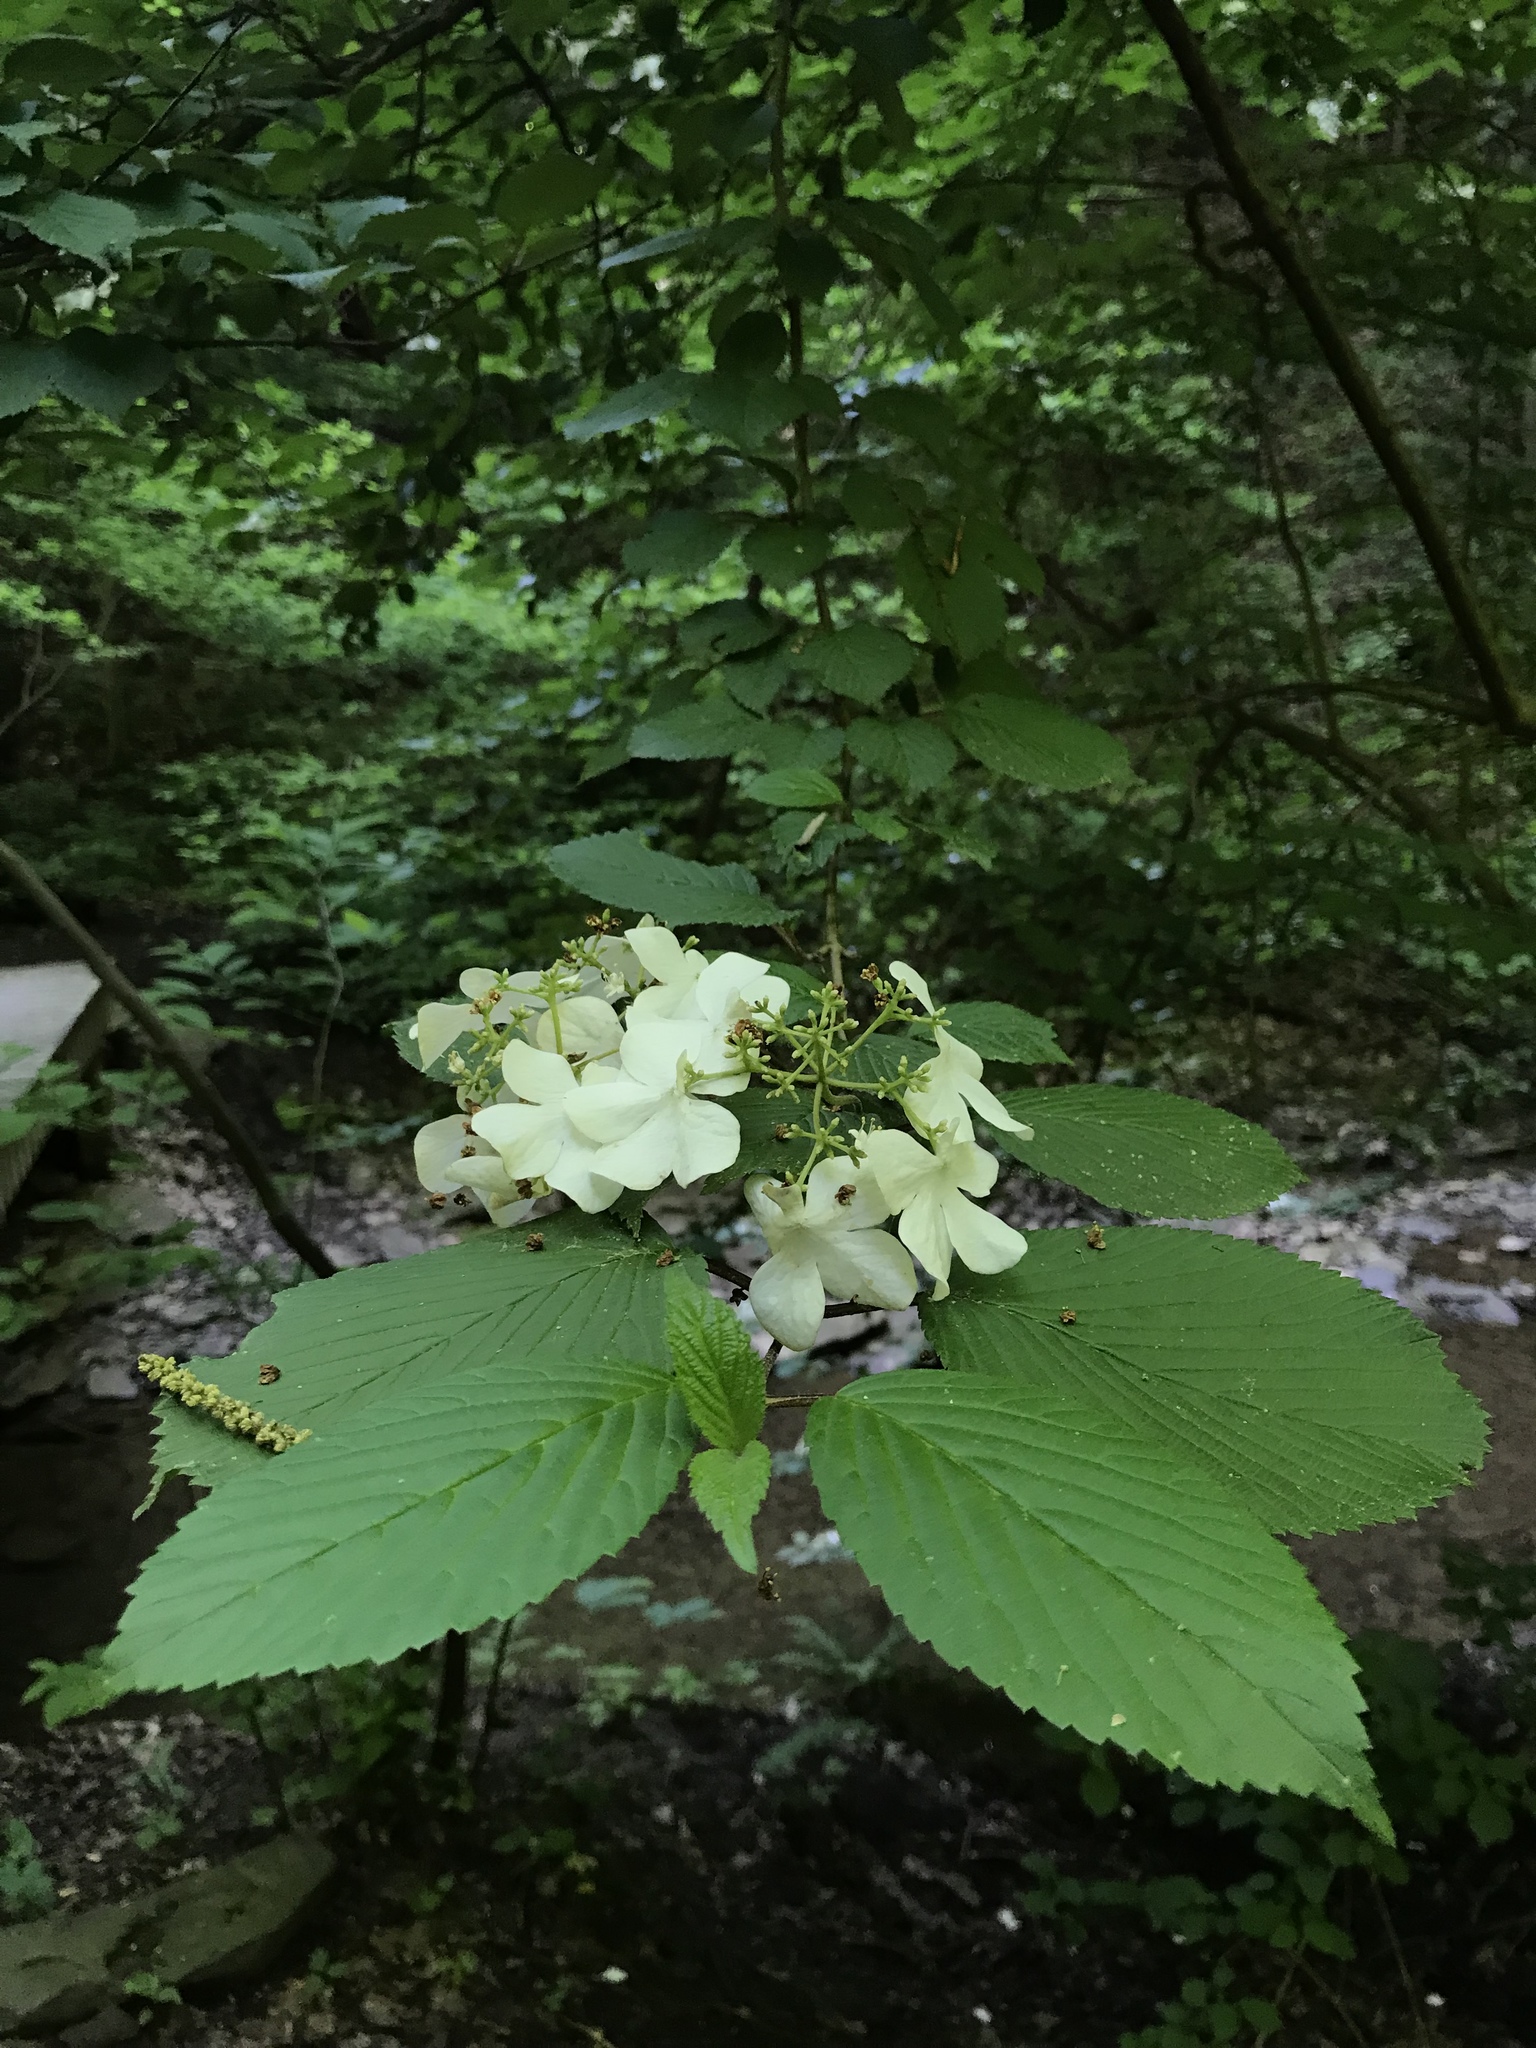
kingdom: Plantae
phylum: Tracheophyta
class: Magnoliopsida
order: Dipsacales
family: Viburnaceae
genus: Viburnum
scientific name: Viburnum plicatum
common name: Japanese snowball
